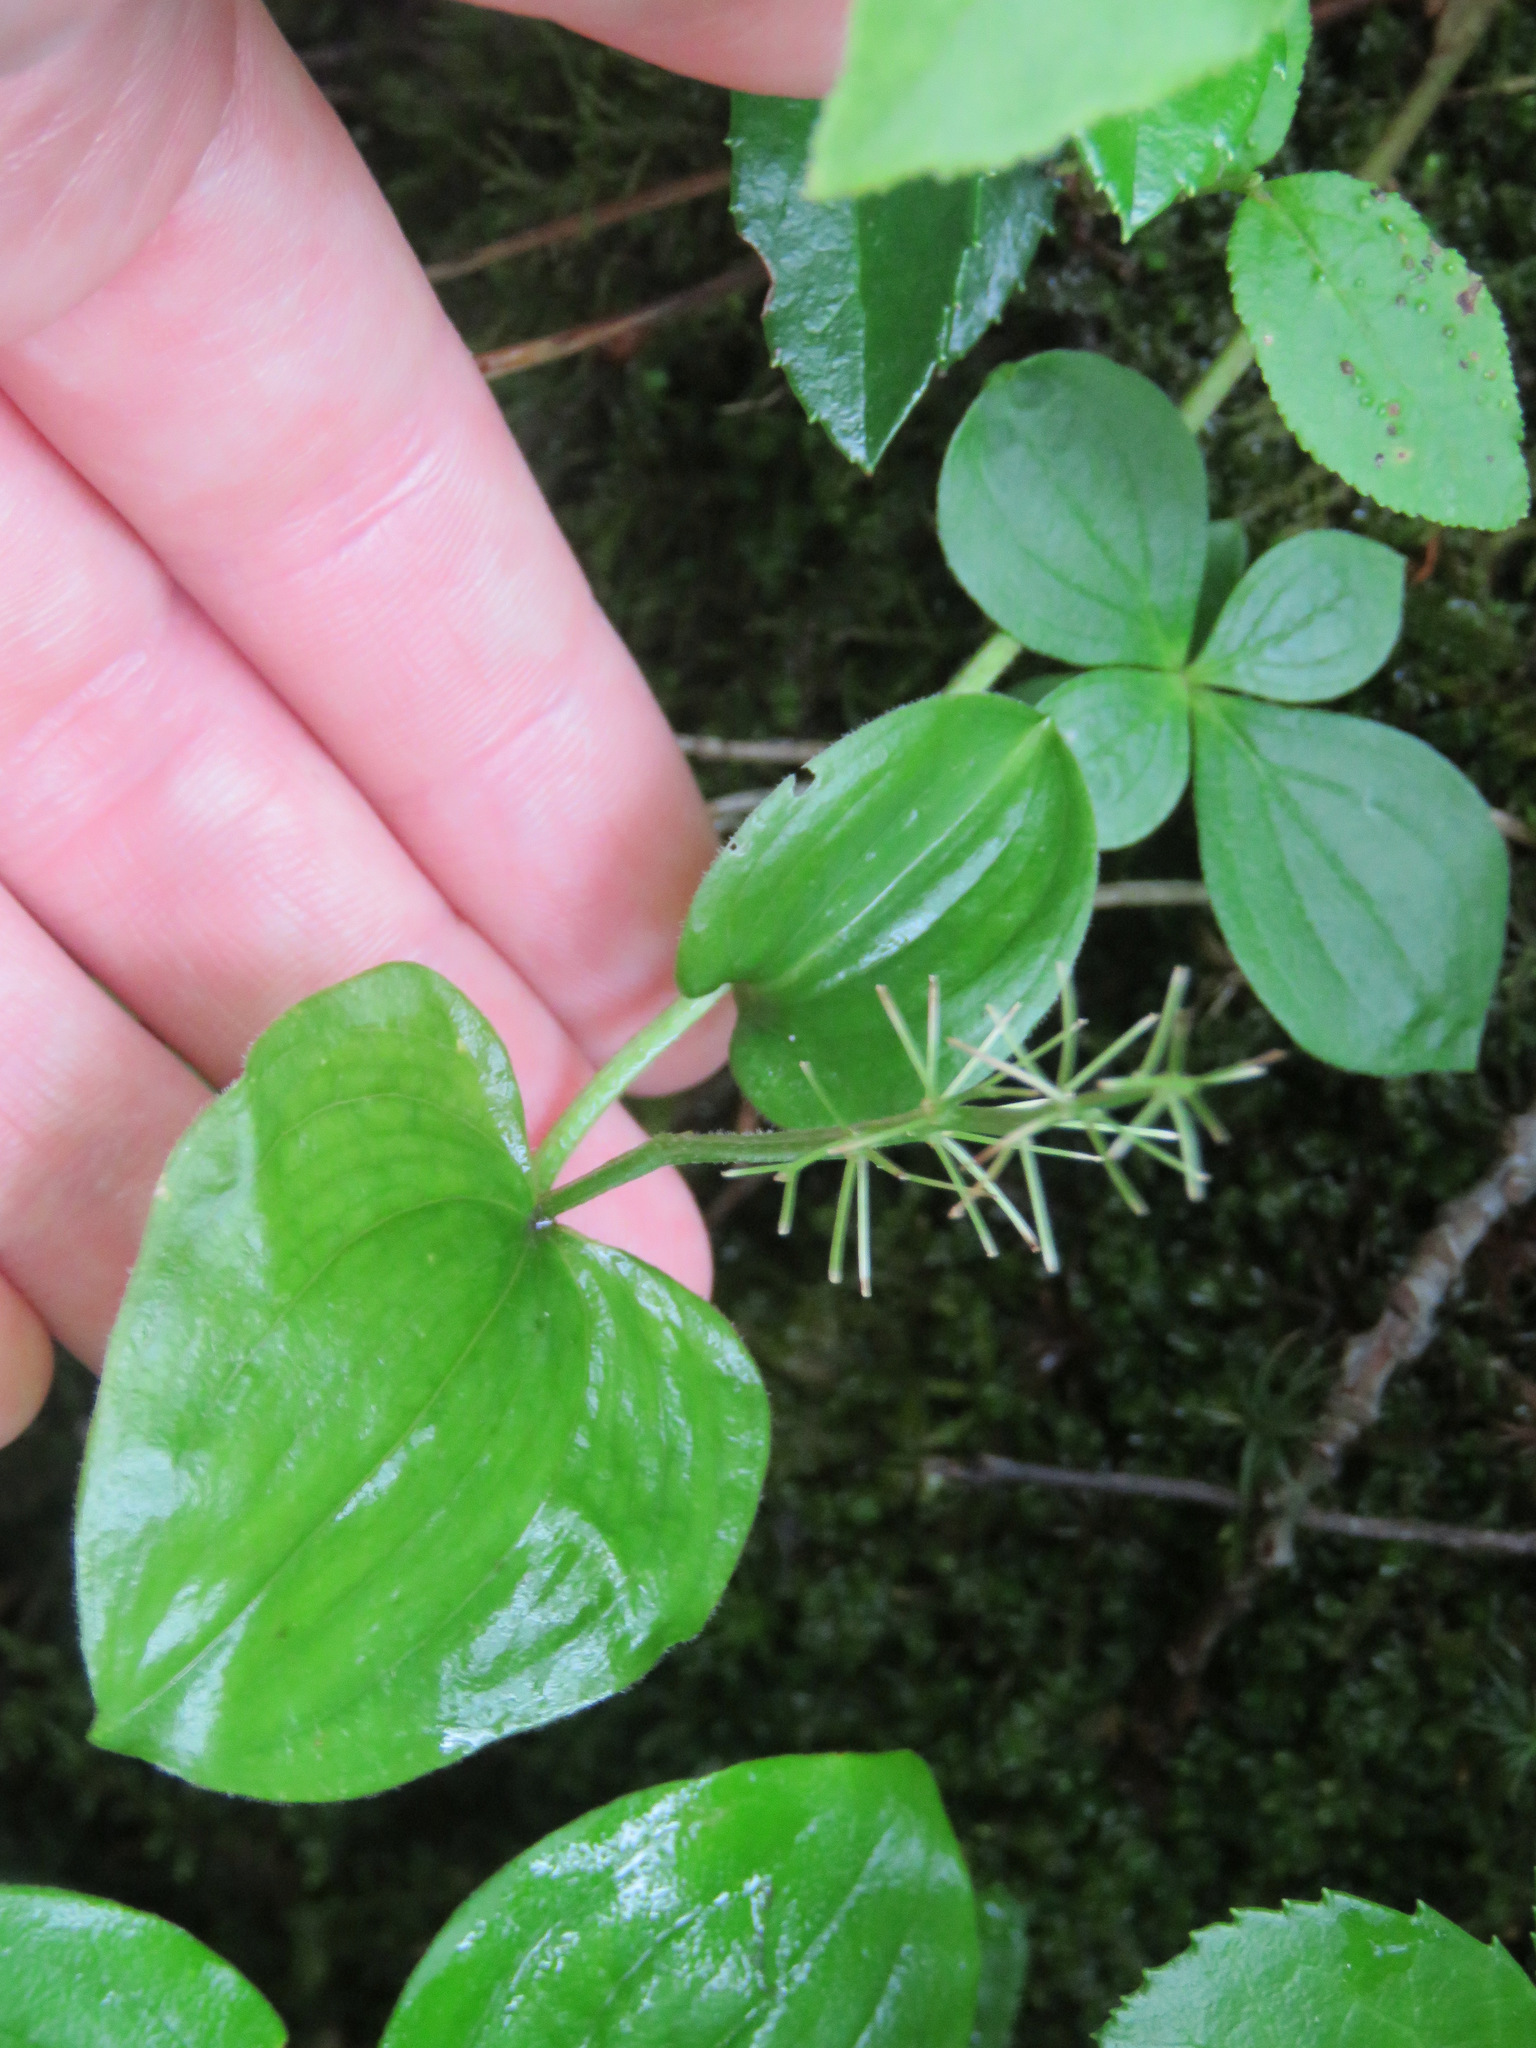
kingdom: Plantae
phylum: Tracheophyta
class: Liliopsida
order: Asparagales
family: Asparagaceae
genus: Maianthemum
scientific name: Maianthemum canadense
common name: False lily-of-the-valley
